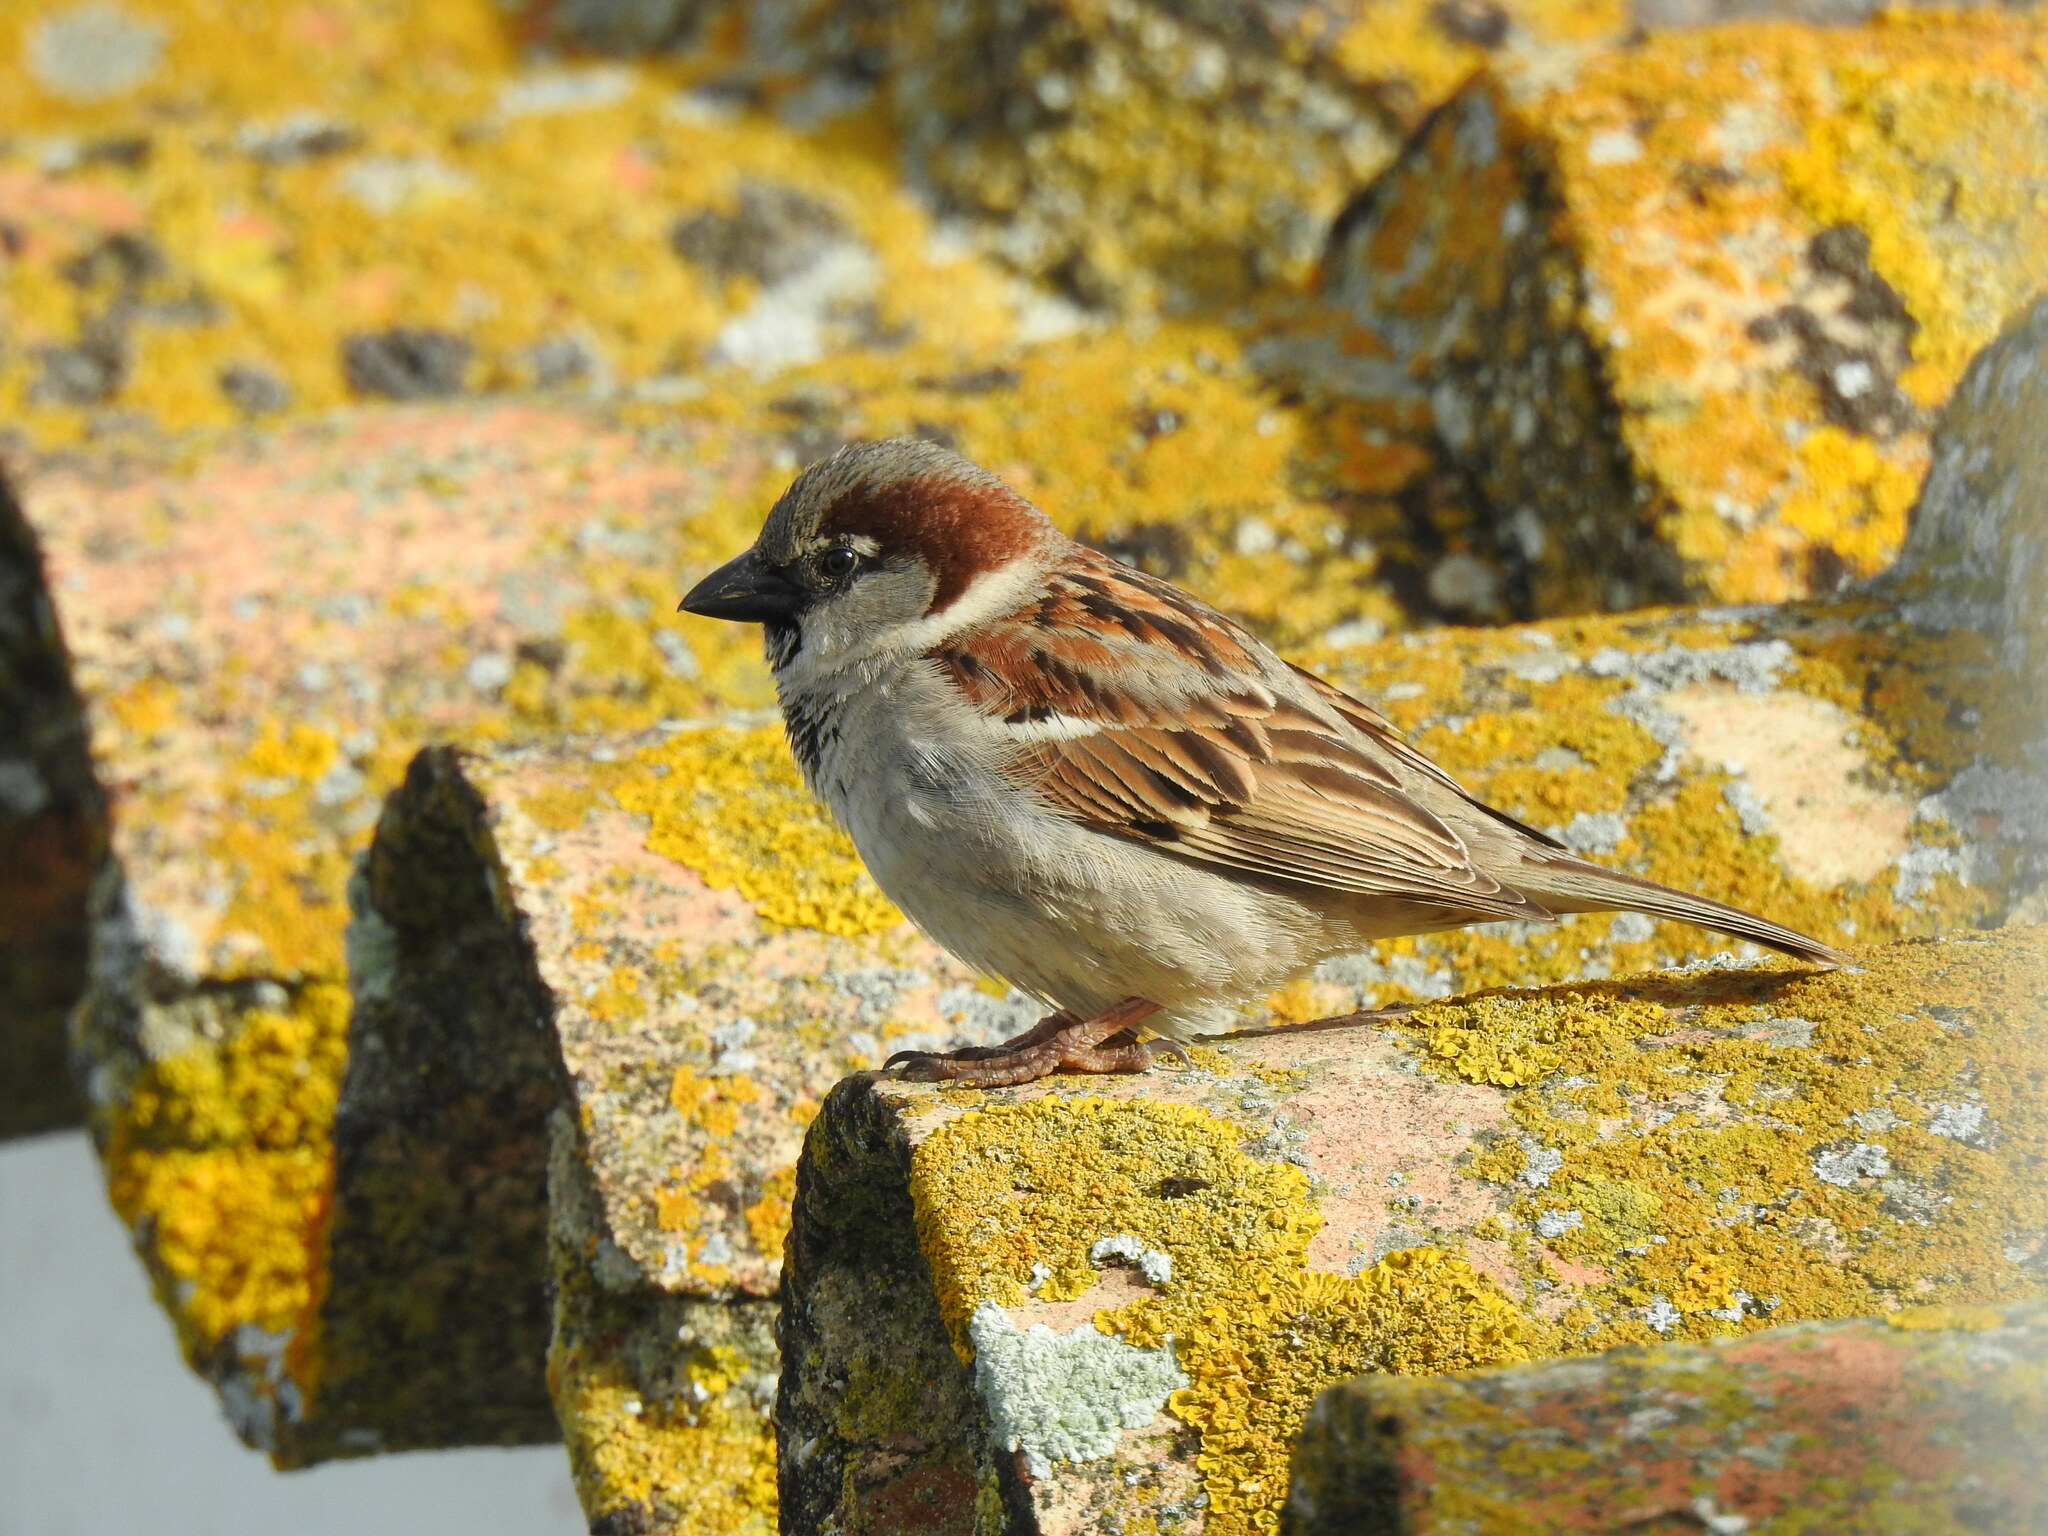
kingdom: Animalia
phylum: Chordata
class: Aves
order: Passeriformes
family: Passeridae
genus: Passer
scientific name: Passer domesticus
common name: House sparrow
